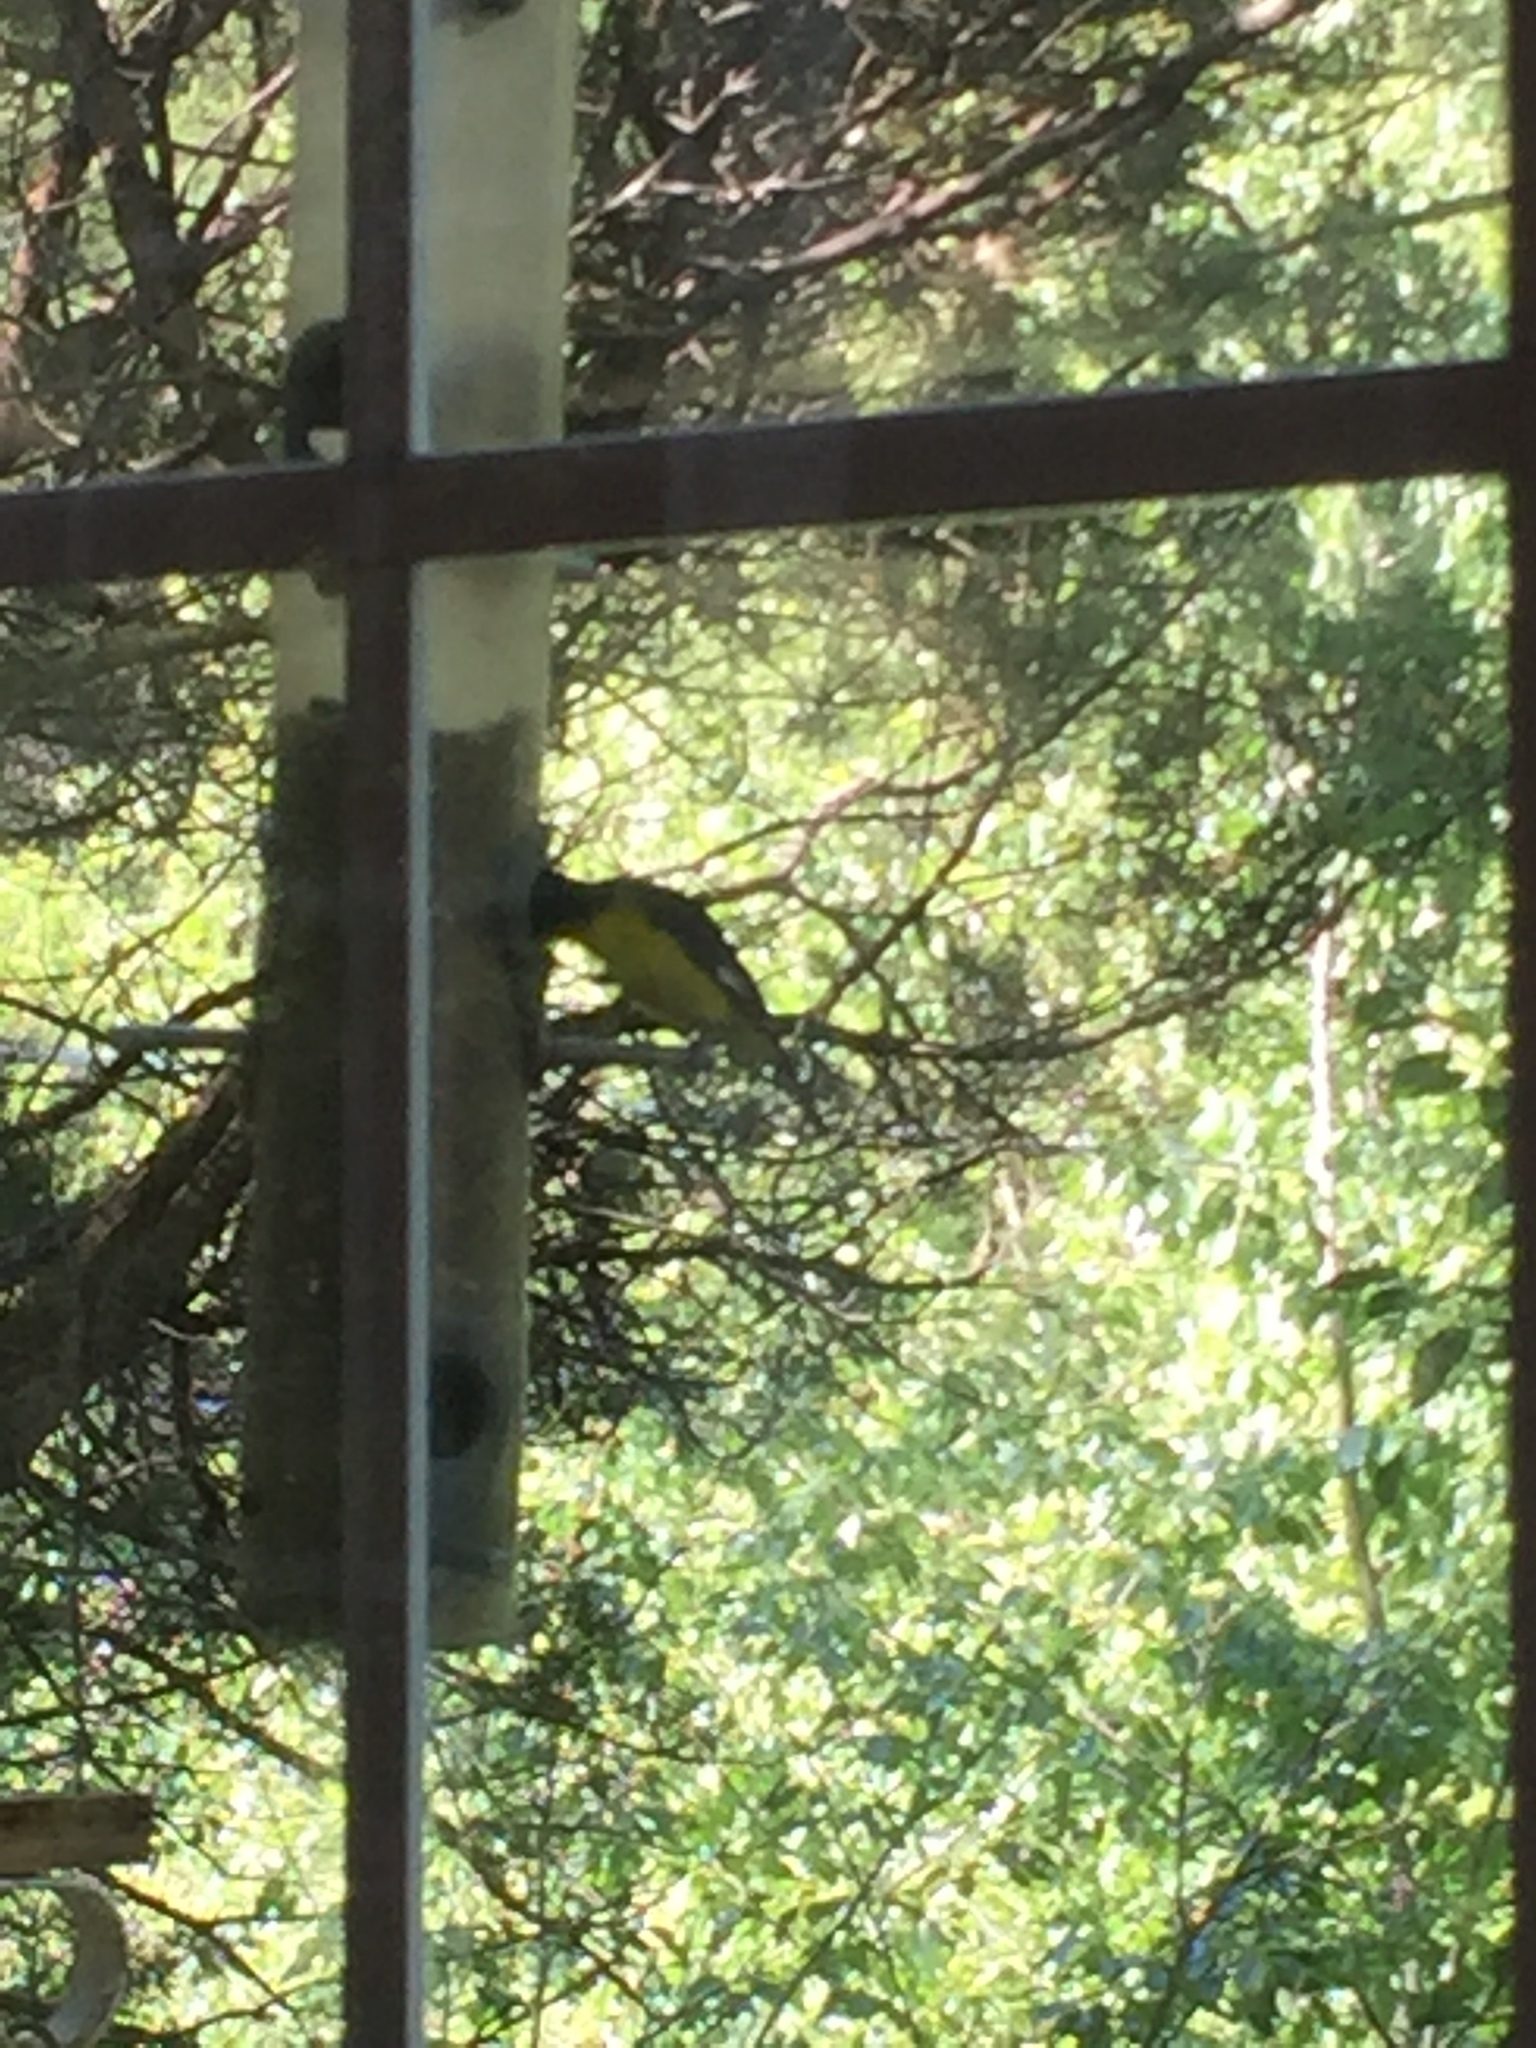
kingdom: Animalia
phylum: Chordata
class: Aves
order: Passeriformes
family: Fringillidae
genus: Spinus
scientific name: Spinus psaltria
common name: Lesser goldfinch
